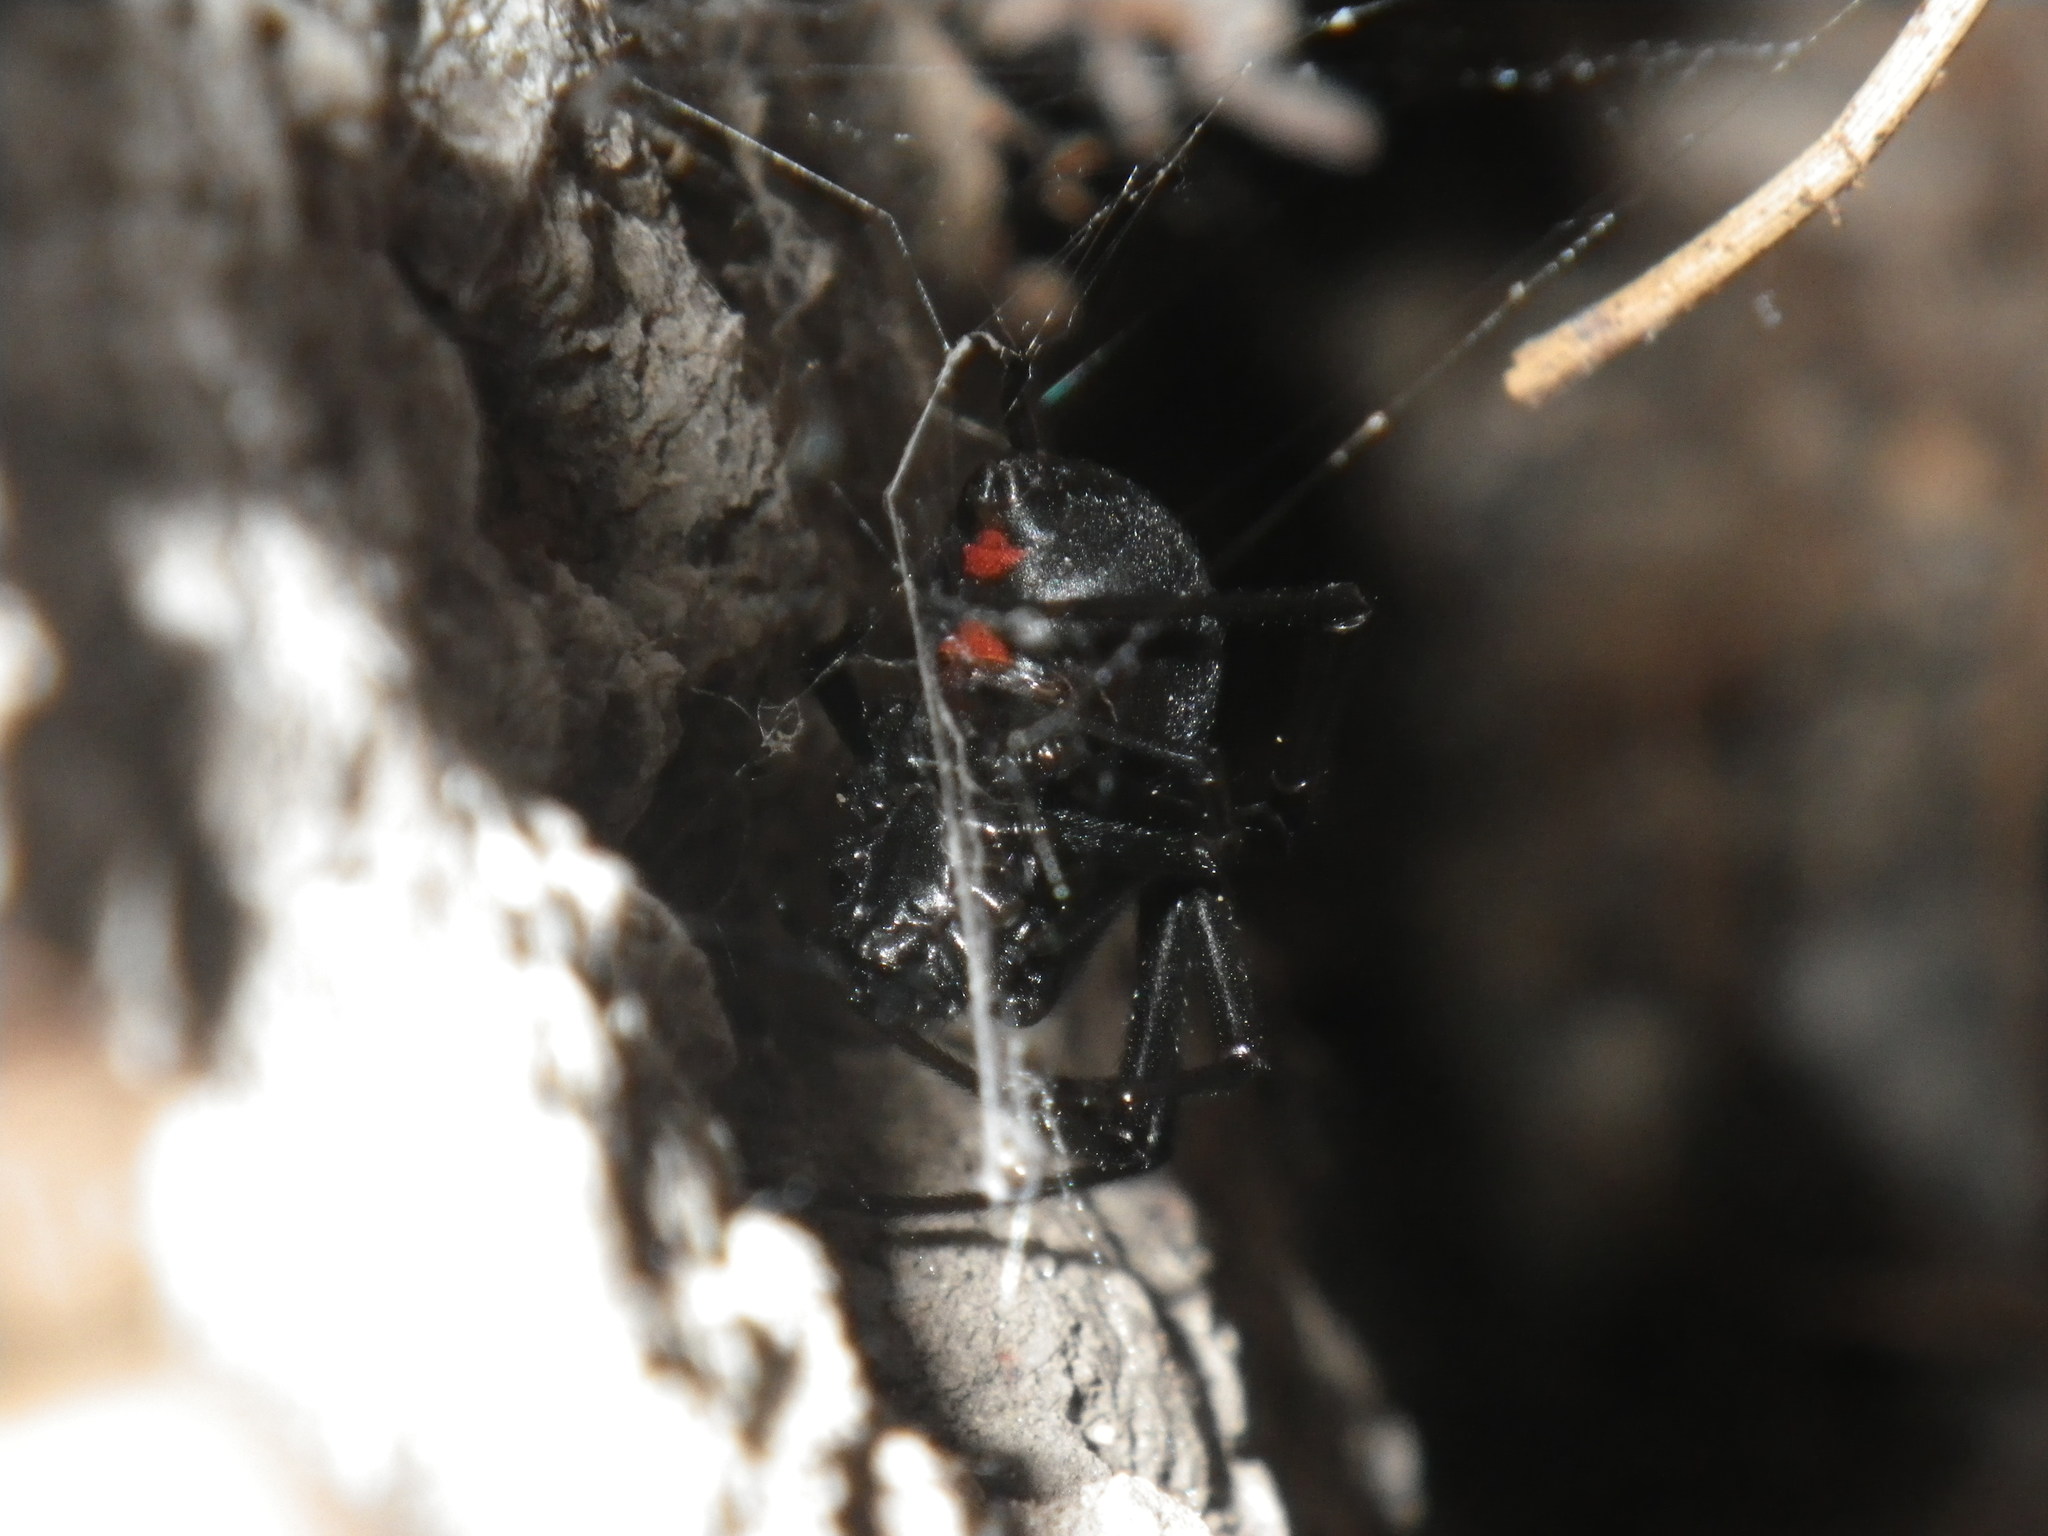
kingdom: Animalia
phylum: Arthropoda
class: Arachnida
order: Araneae
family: Theridiidae
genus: Latrodectus
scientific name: Latrodectus hesperus
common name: Western black widow
